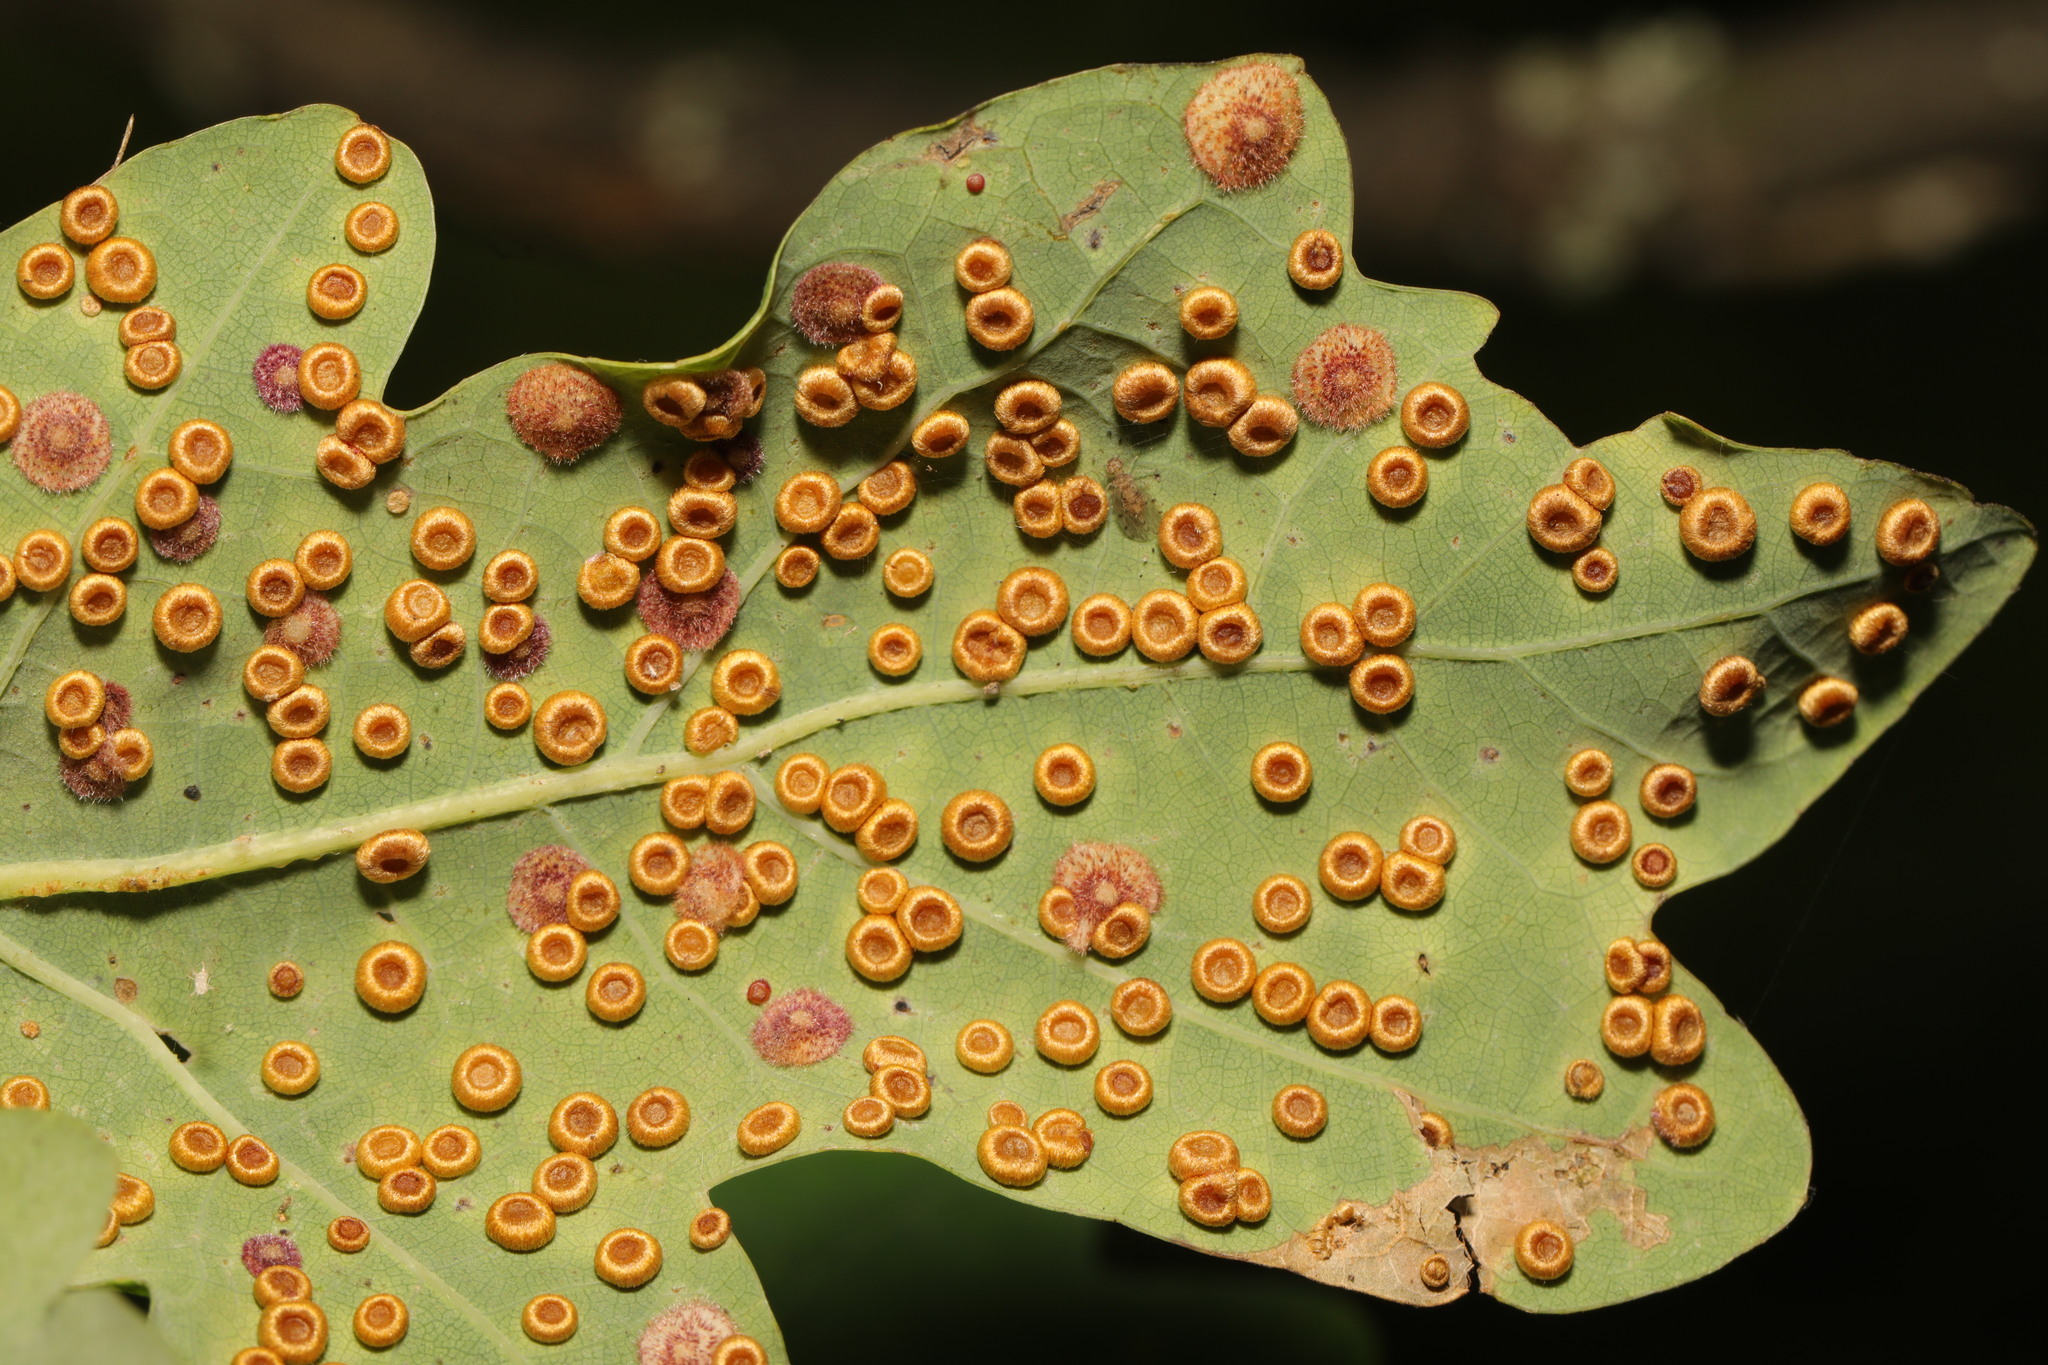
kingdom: Animalia
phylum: Arthropoda
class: Insecta
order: Hymenoptera
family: Cynipidae
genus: Neuroterus
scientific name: Neuroterus numismalis
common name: Silk-button spangle gall
